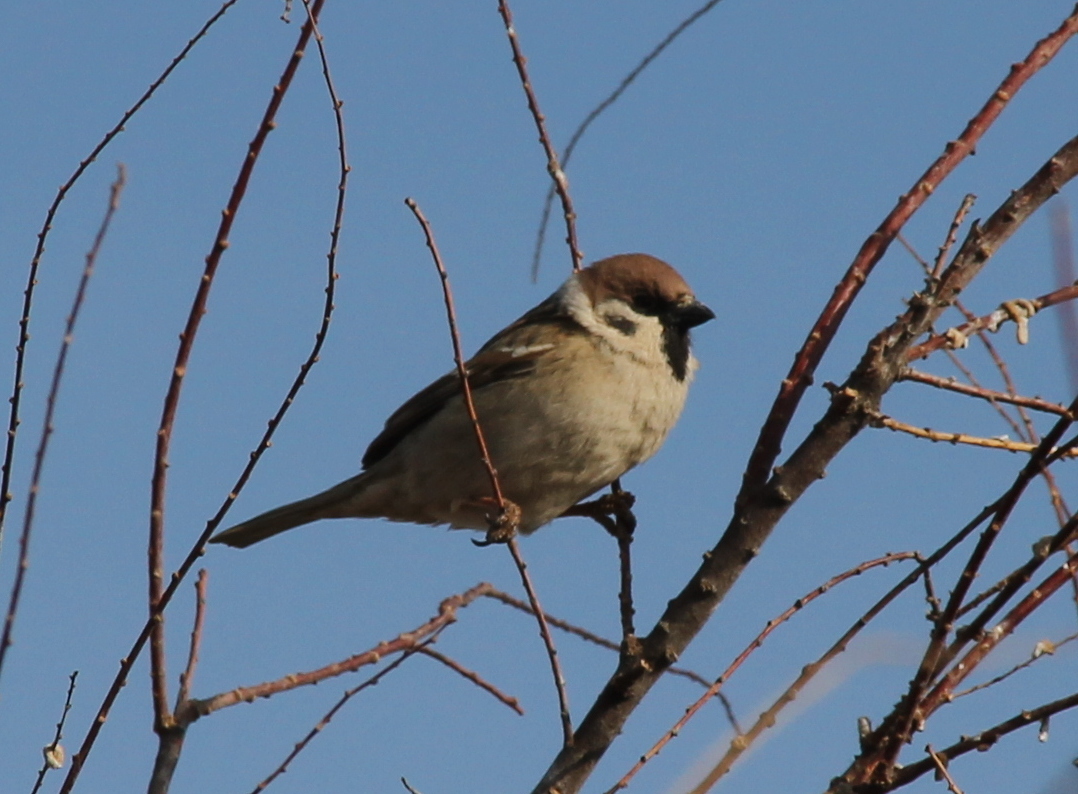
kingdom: Animalia
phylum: Chordata
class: Aves
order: Passeriformes
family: Passeridae
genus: Passer
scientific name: Passer montanus
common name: Eurasian tree sparrow
